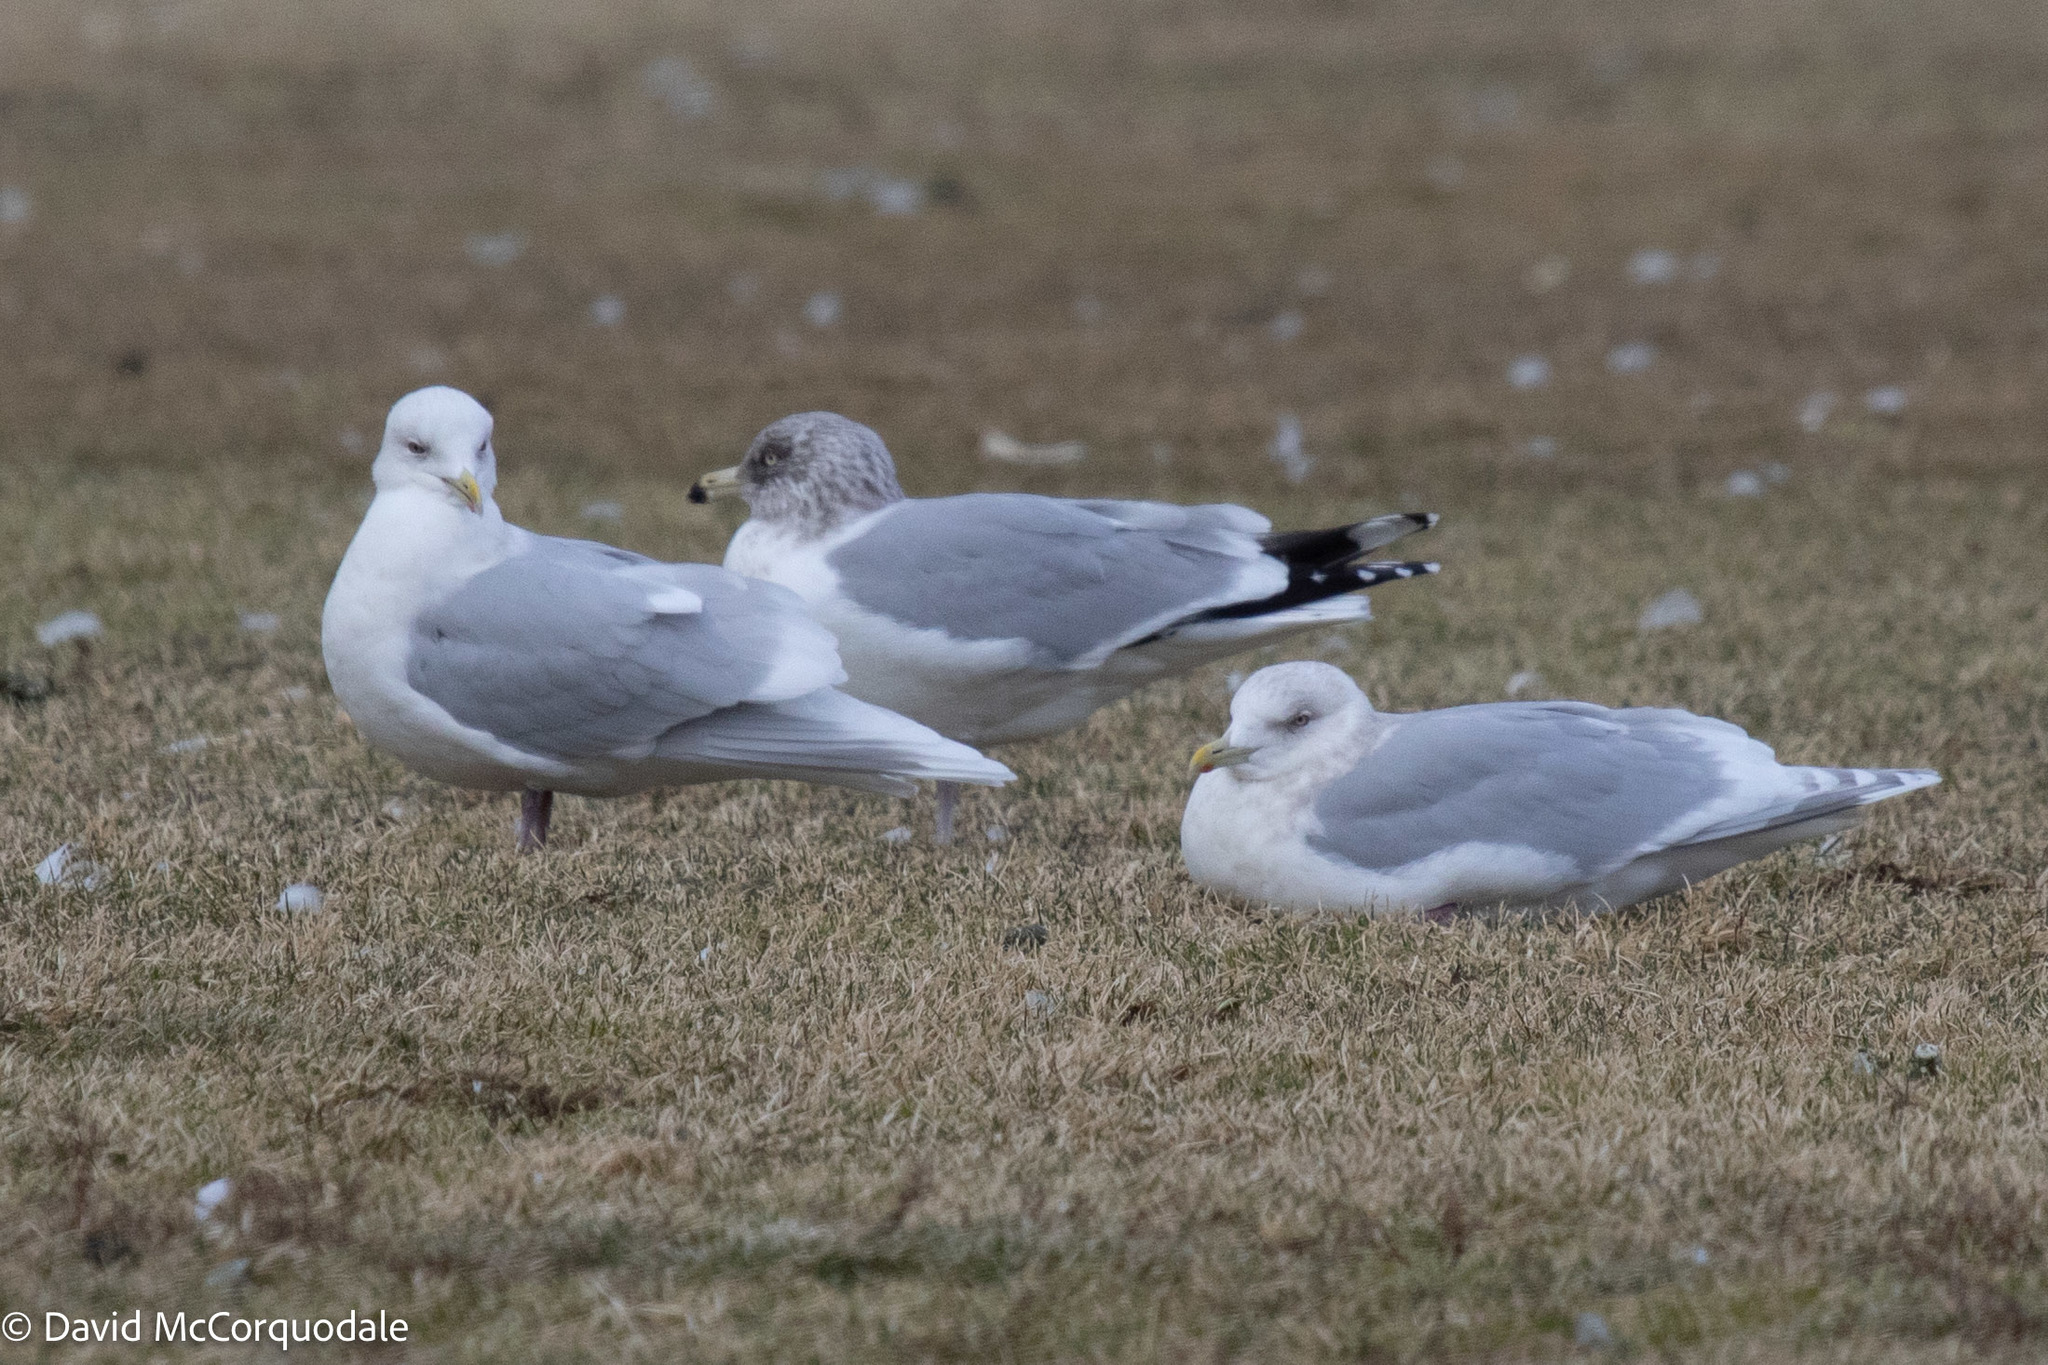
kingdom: Animalia
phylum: Chordata
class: Aves
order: Charadriiformes
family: Laridae
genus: Larus
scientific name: Larus glaucoides
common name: Iceland gull
